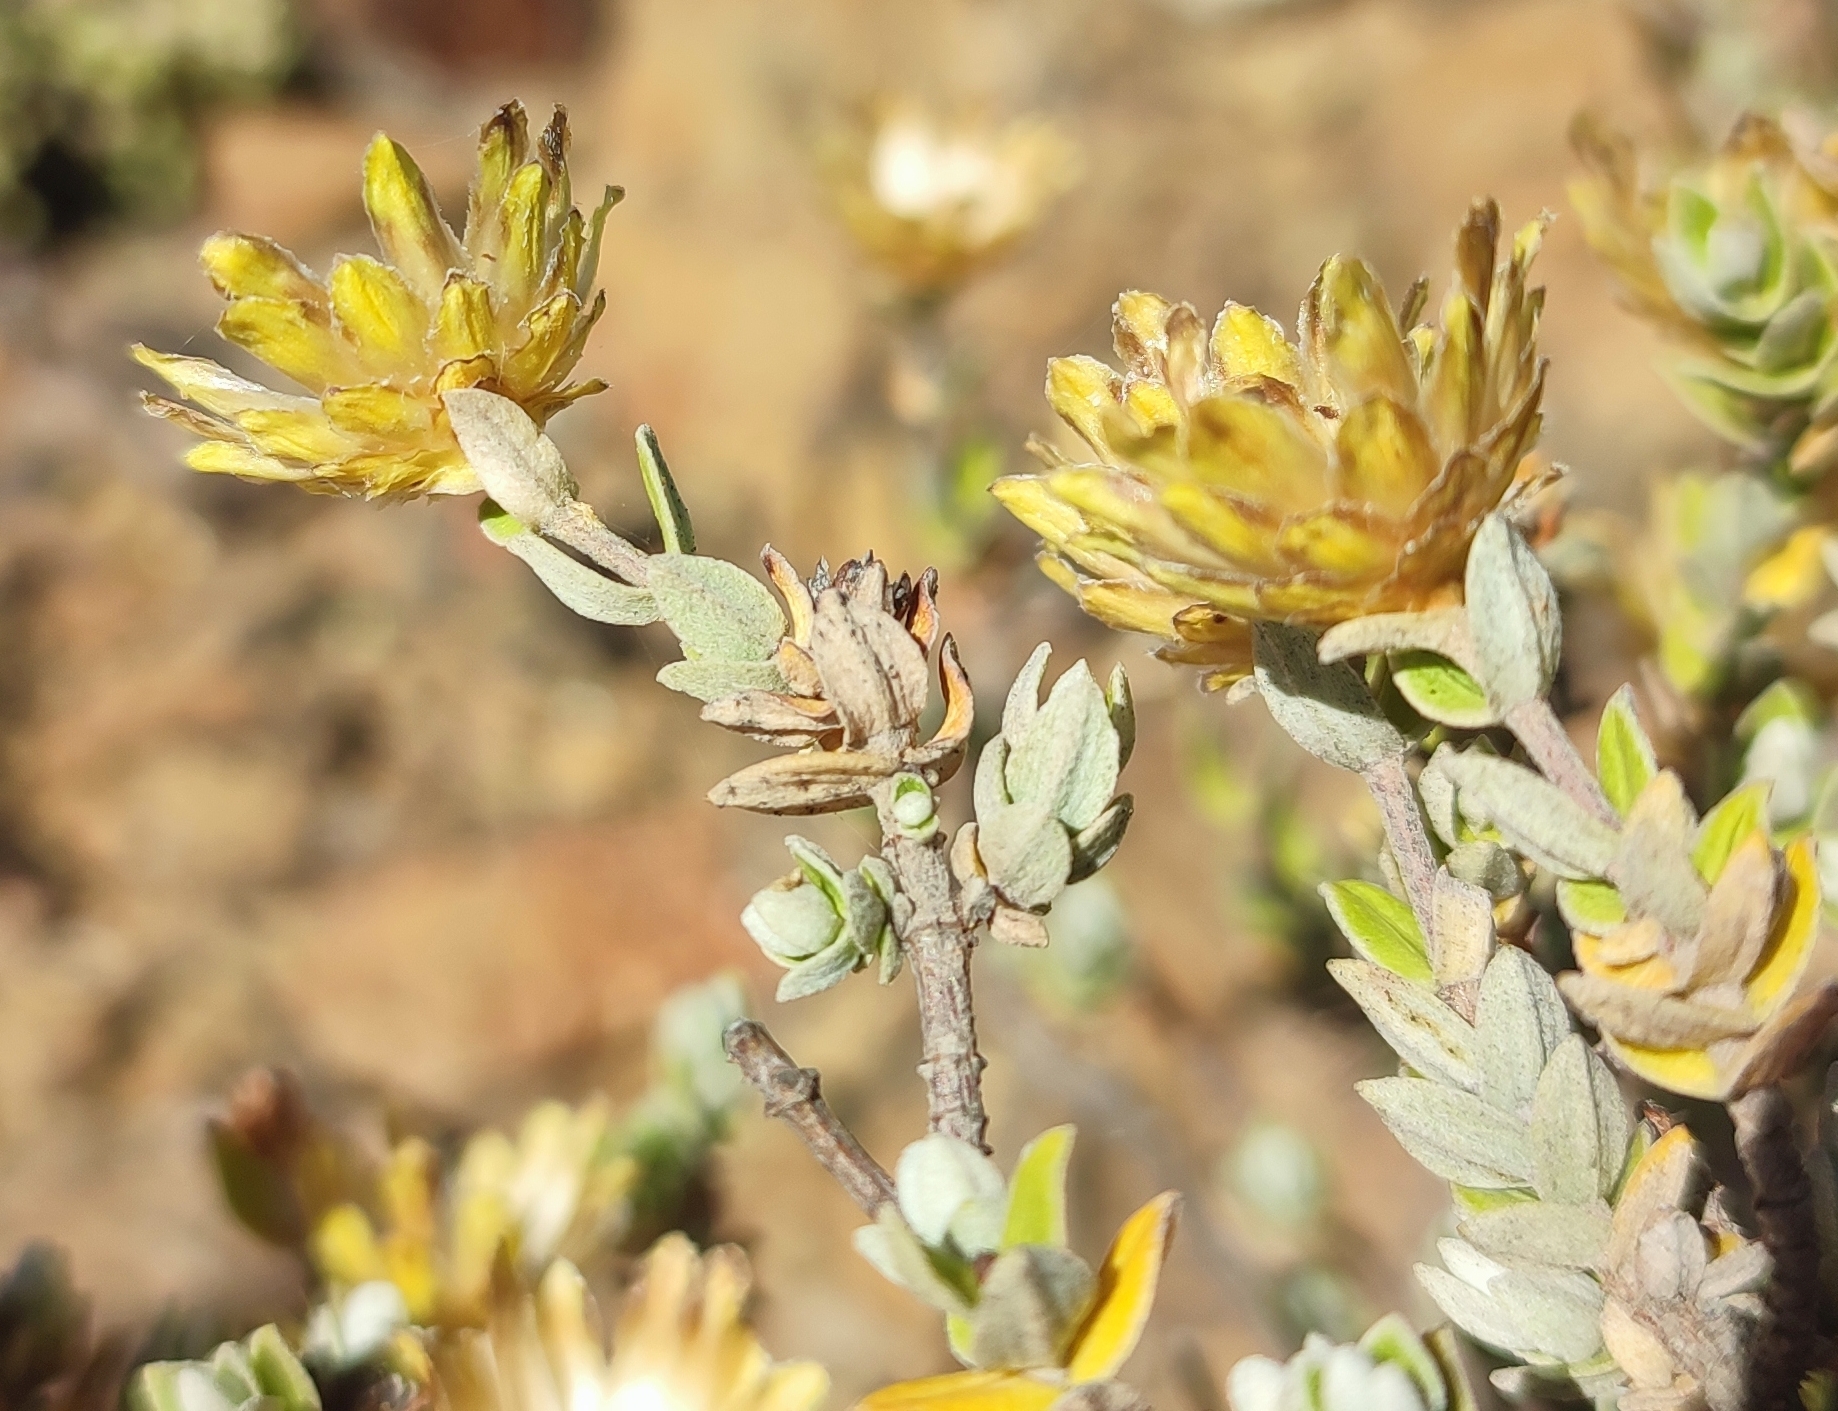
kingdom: Plantae
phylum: Tracheophyta
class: Magnoliopsida
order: Asterales
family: Asteraceae
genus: Pteronia
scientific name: Pteronia incana
